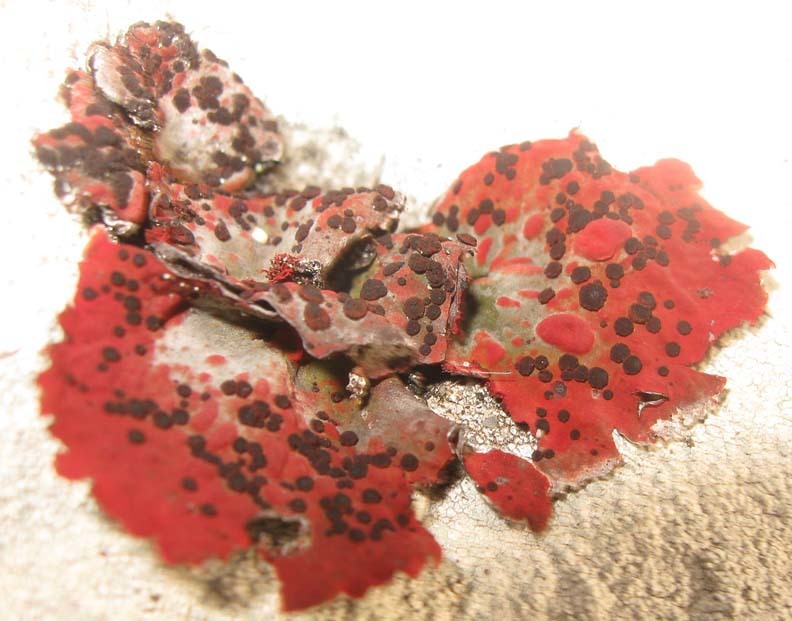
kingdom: Fungi
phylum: Ascomycota
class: Lecanoromycetes
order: Umbilicariales
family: Umbilicariaceae
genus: Lasallia
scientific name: Lasallia rubiginosa
